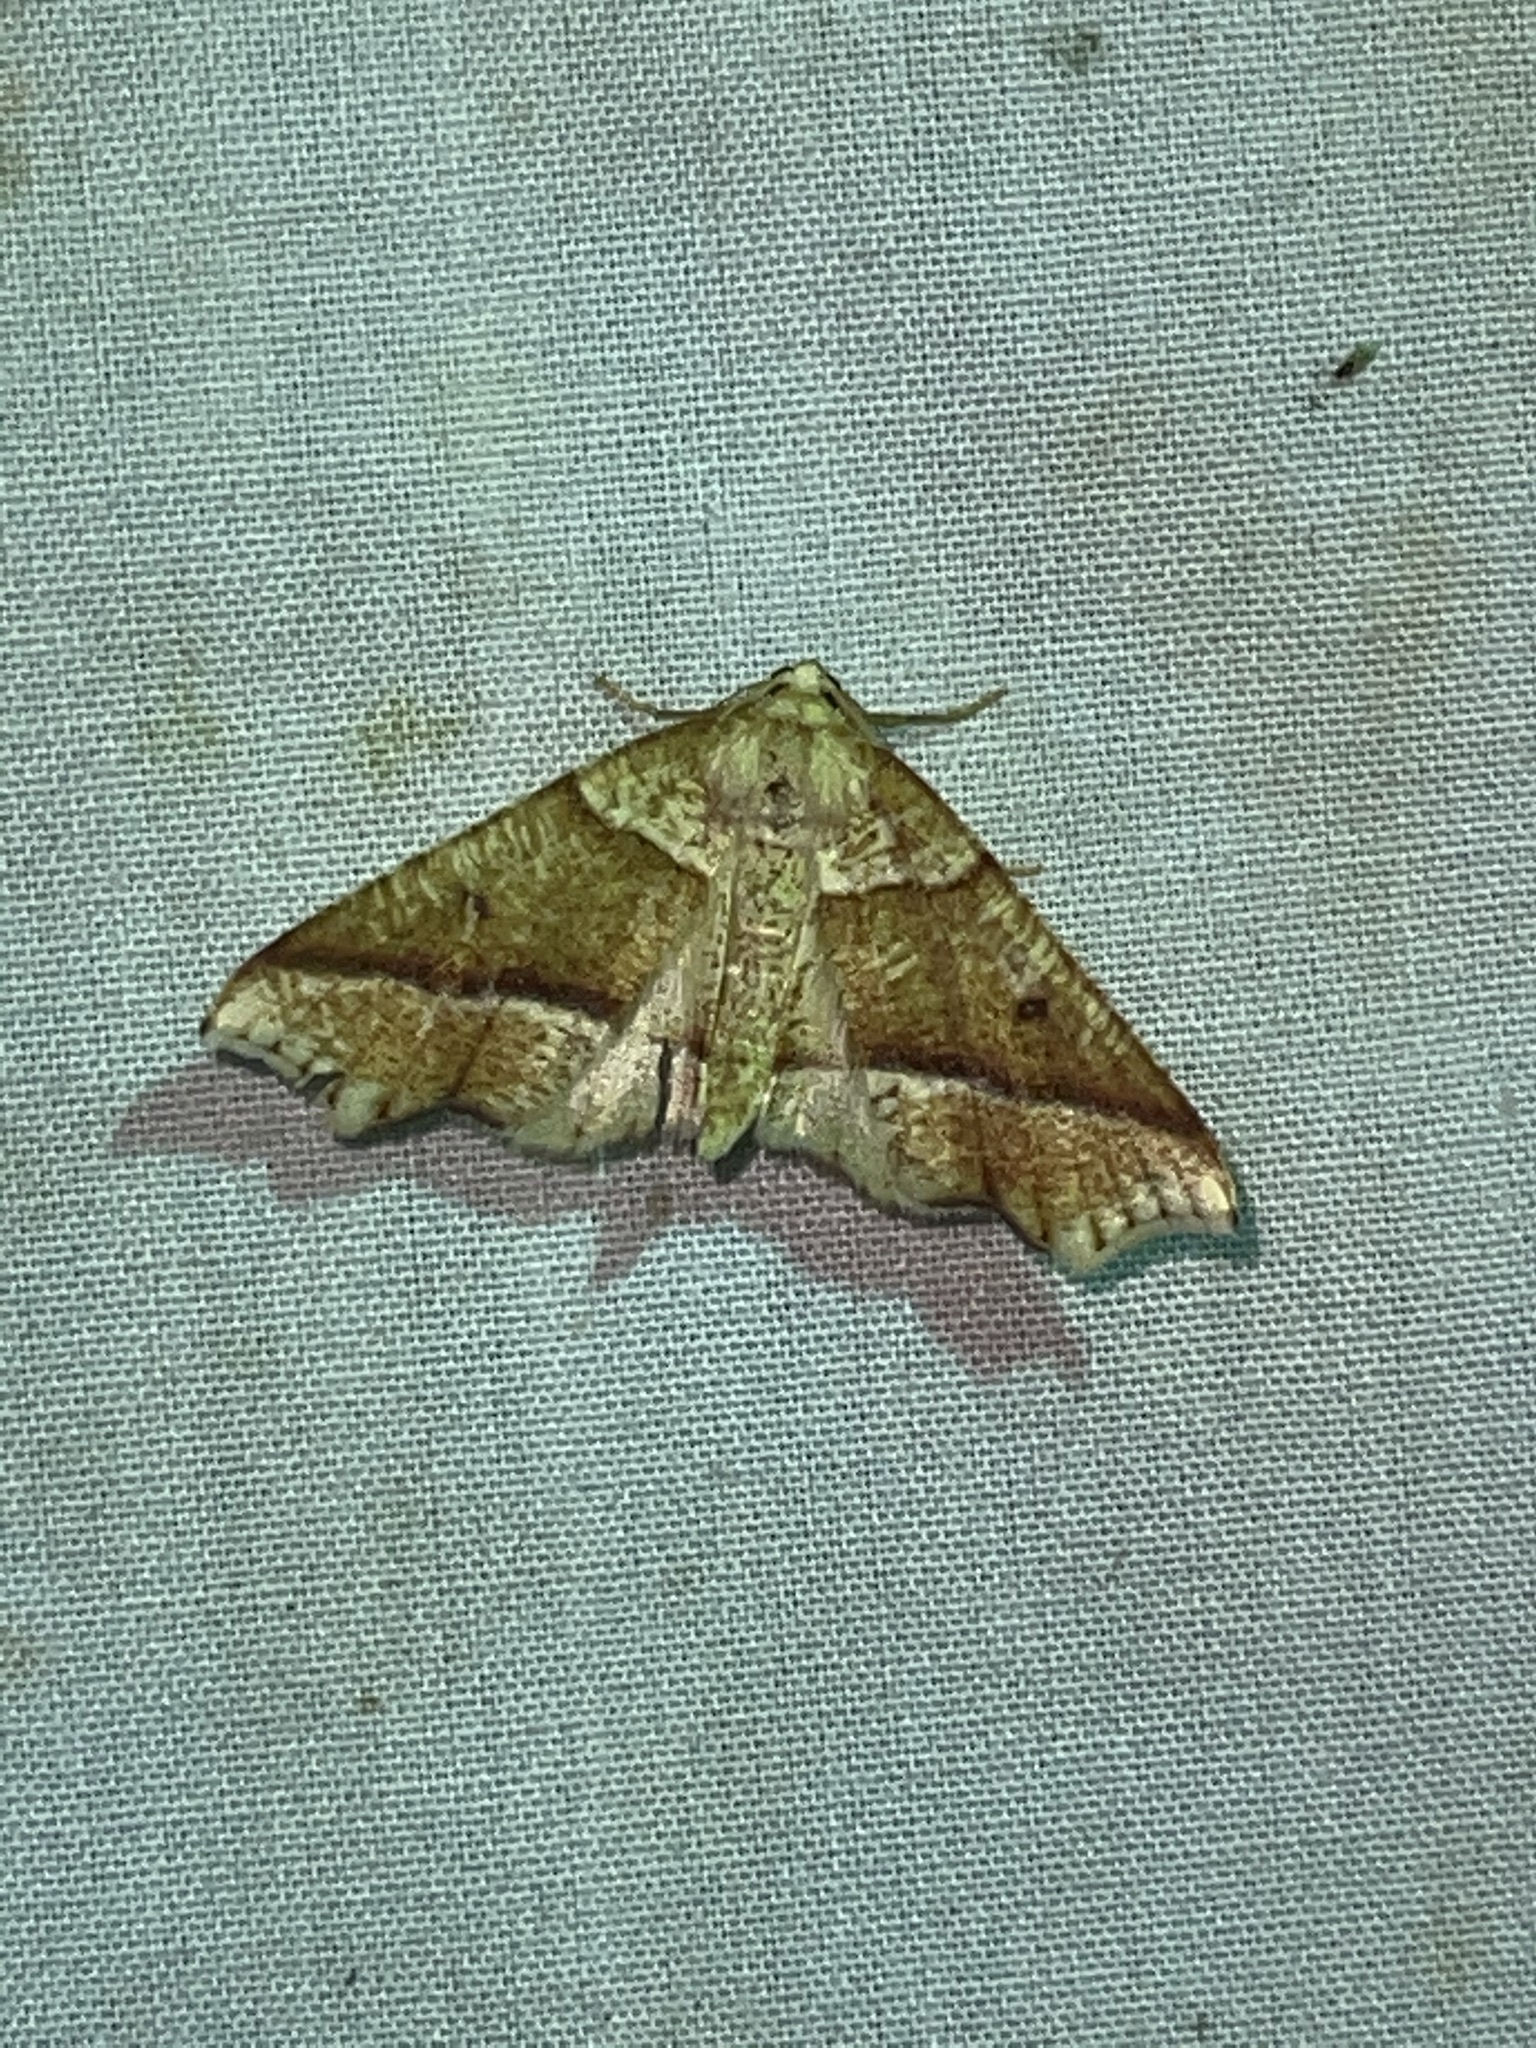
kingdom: Animalia
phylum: Arthropoda
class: Insecta
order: Lepidoptera
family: Geometridae
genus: Plagodis
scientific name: Plagodis alcoolaria
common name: Hollow-spotted plagodis
